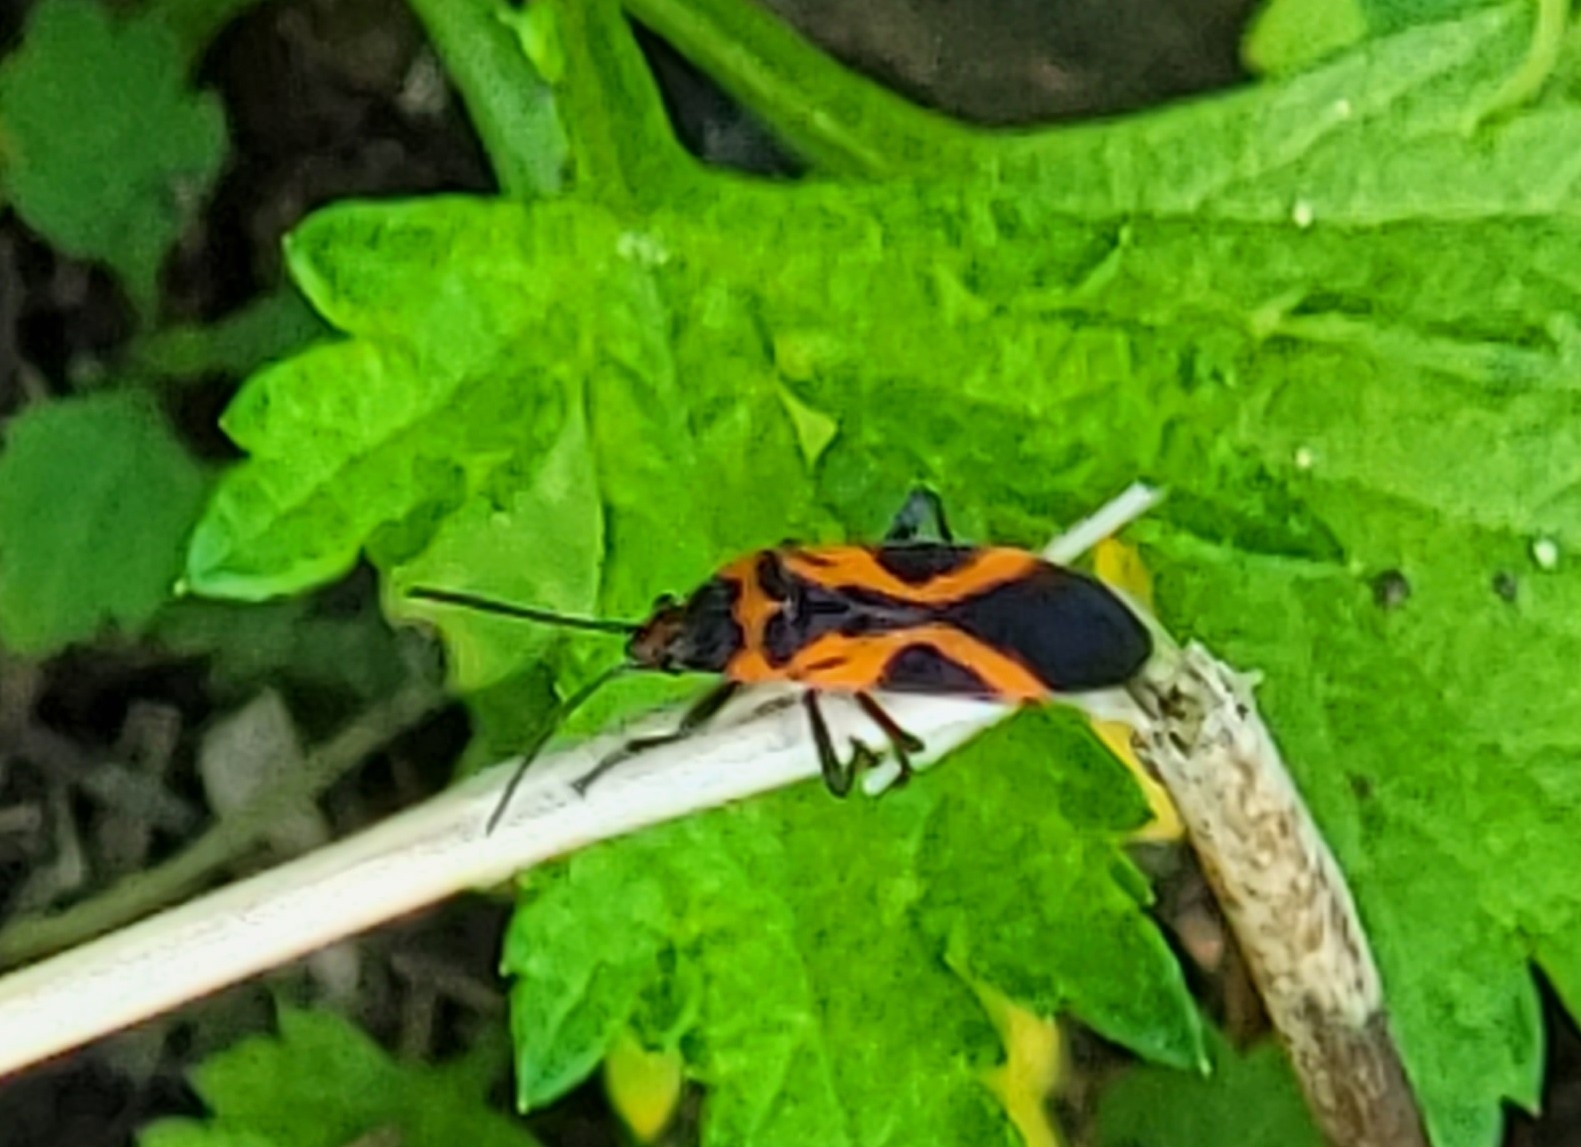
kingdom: Animalia
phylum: Arthropoda
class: Insecta
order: Hemiptera
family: Lygaeidae
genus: Lygaeus
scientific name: Lygaeus turcicus
